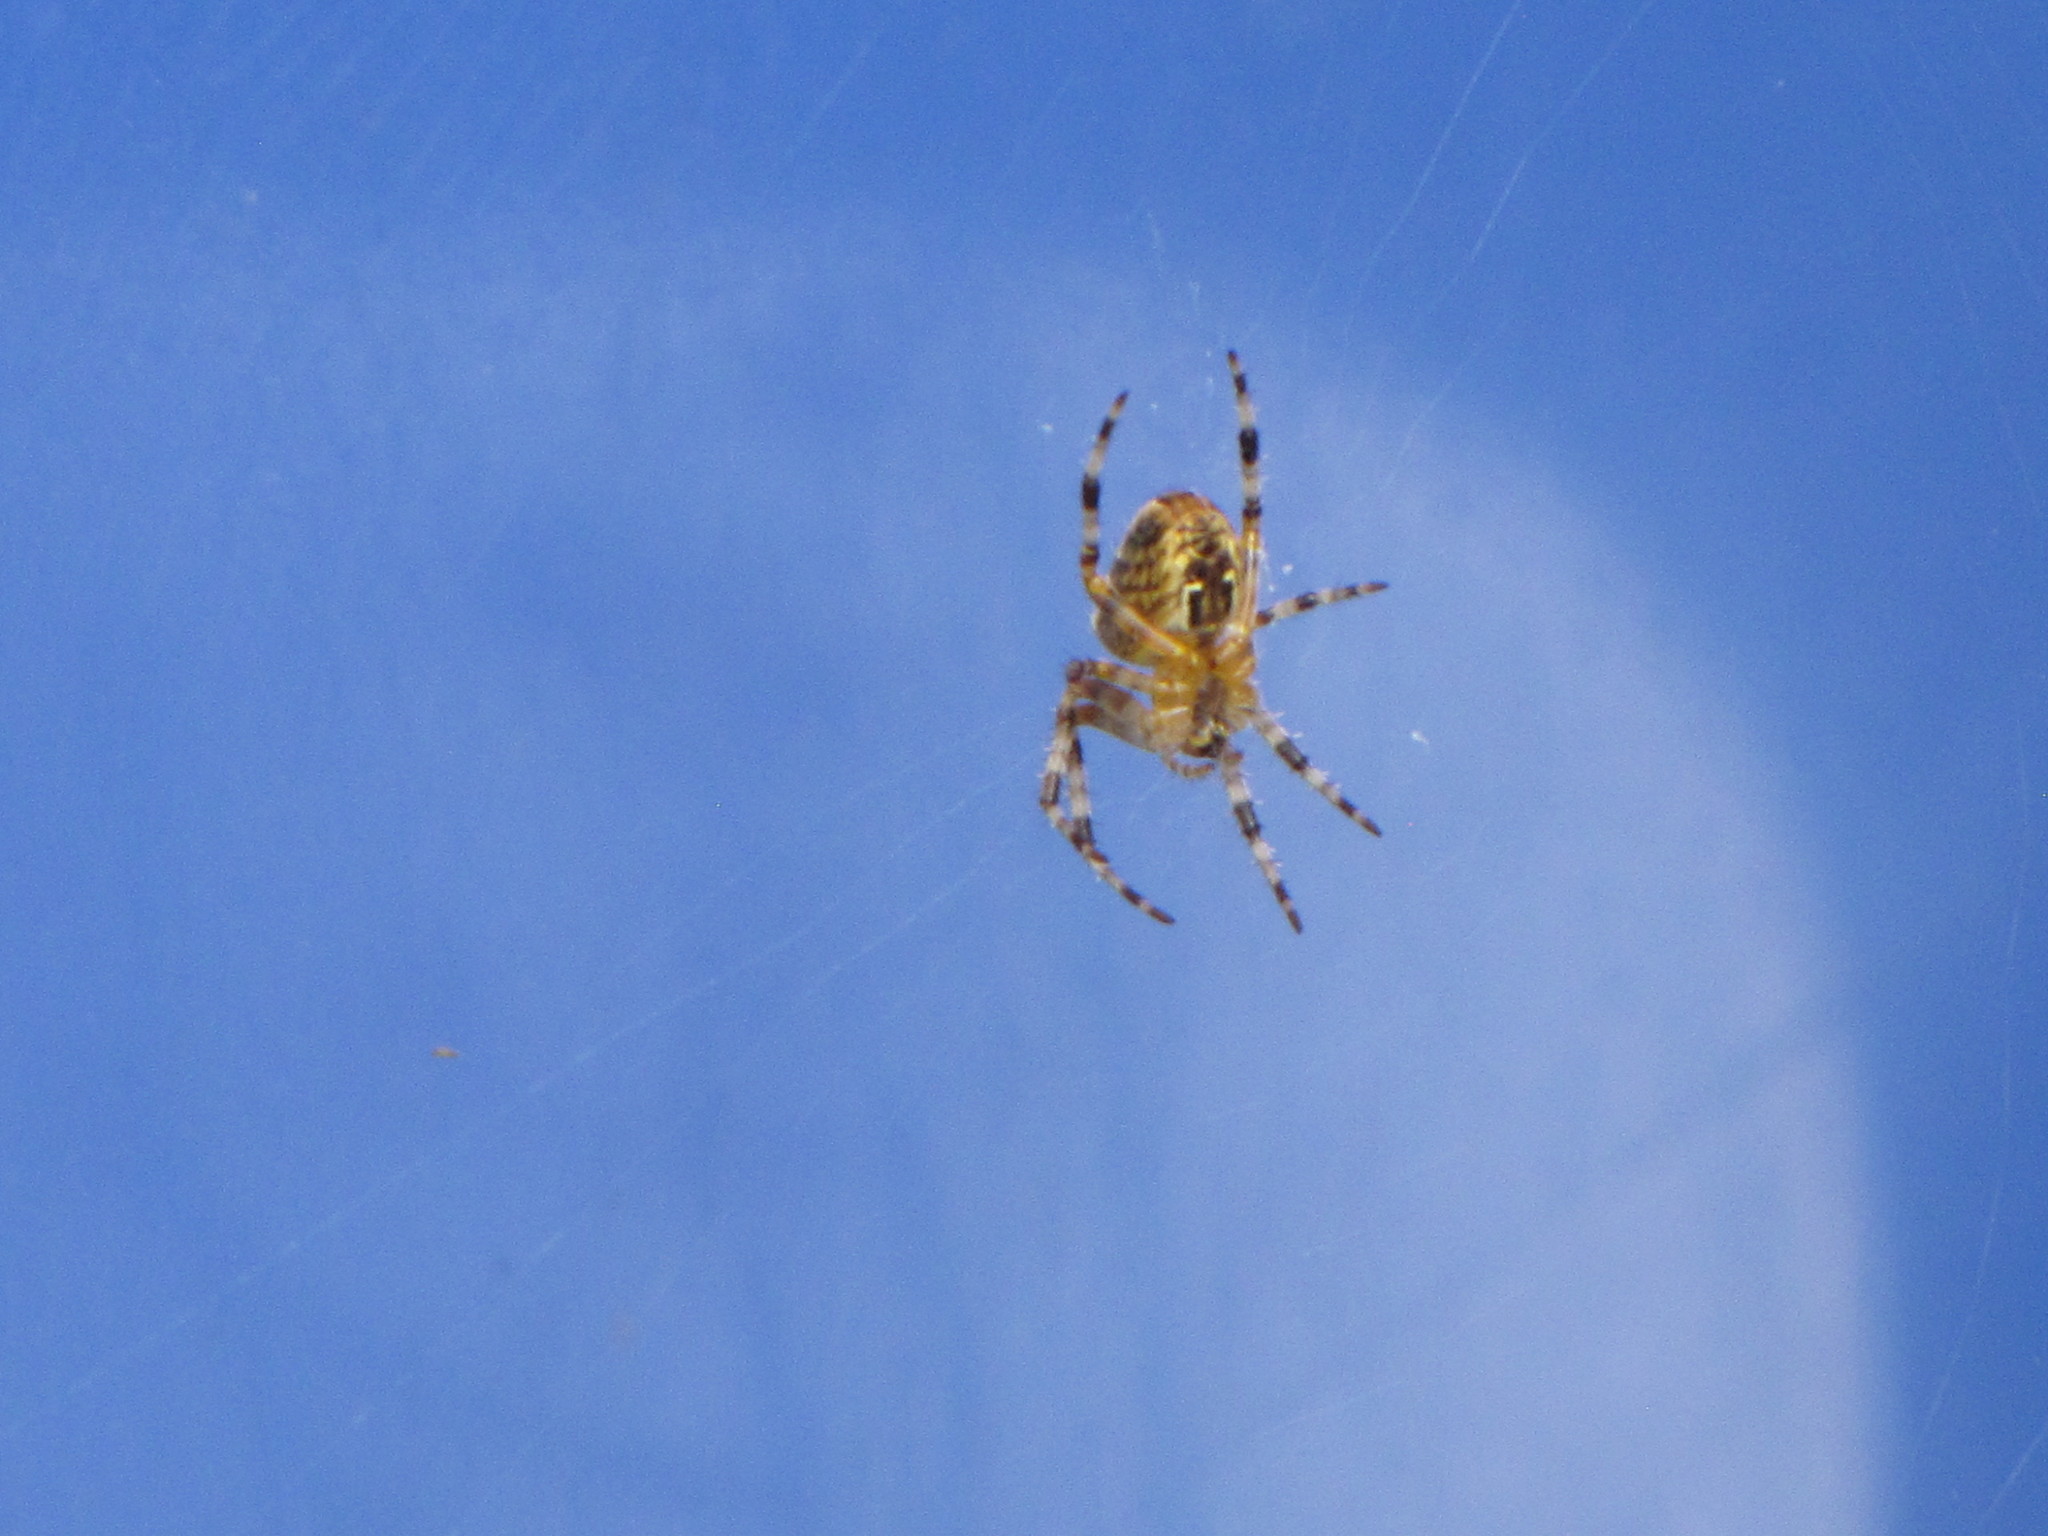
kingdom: Animalia
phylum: Arthropoda
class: Arachnida
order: Araneae
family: Araneidae
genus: Araneus
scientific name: Araneus diadematus
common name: Cross orbweaver
